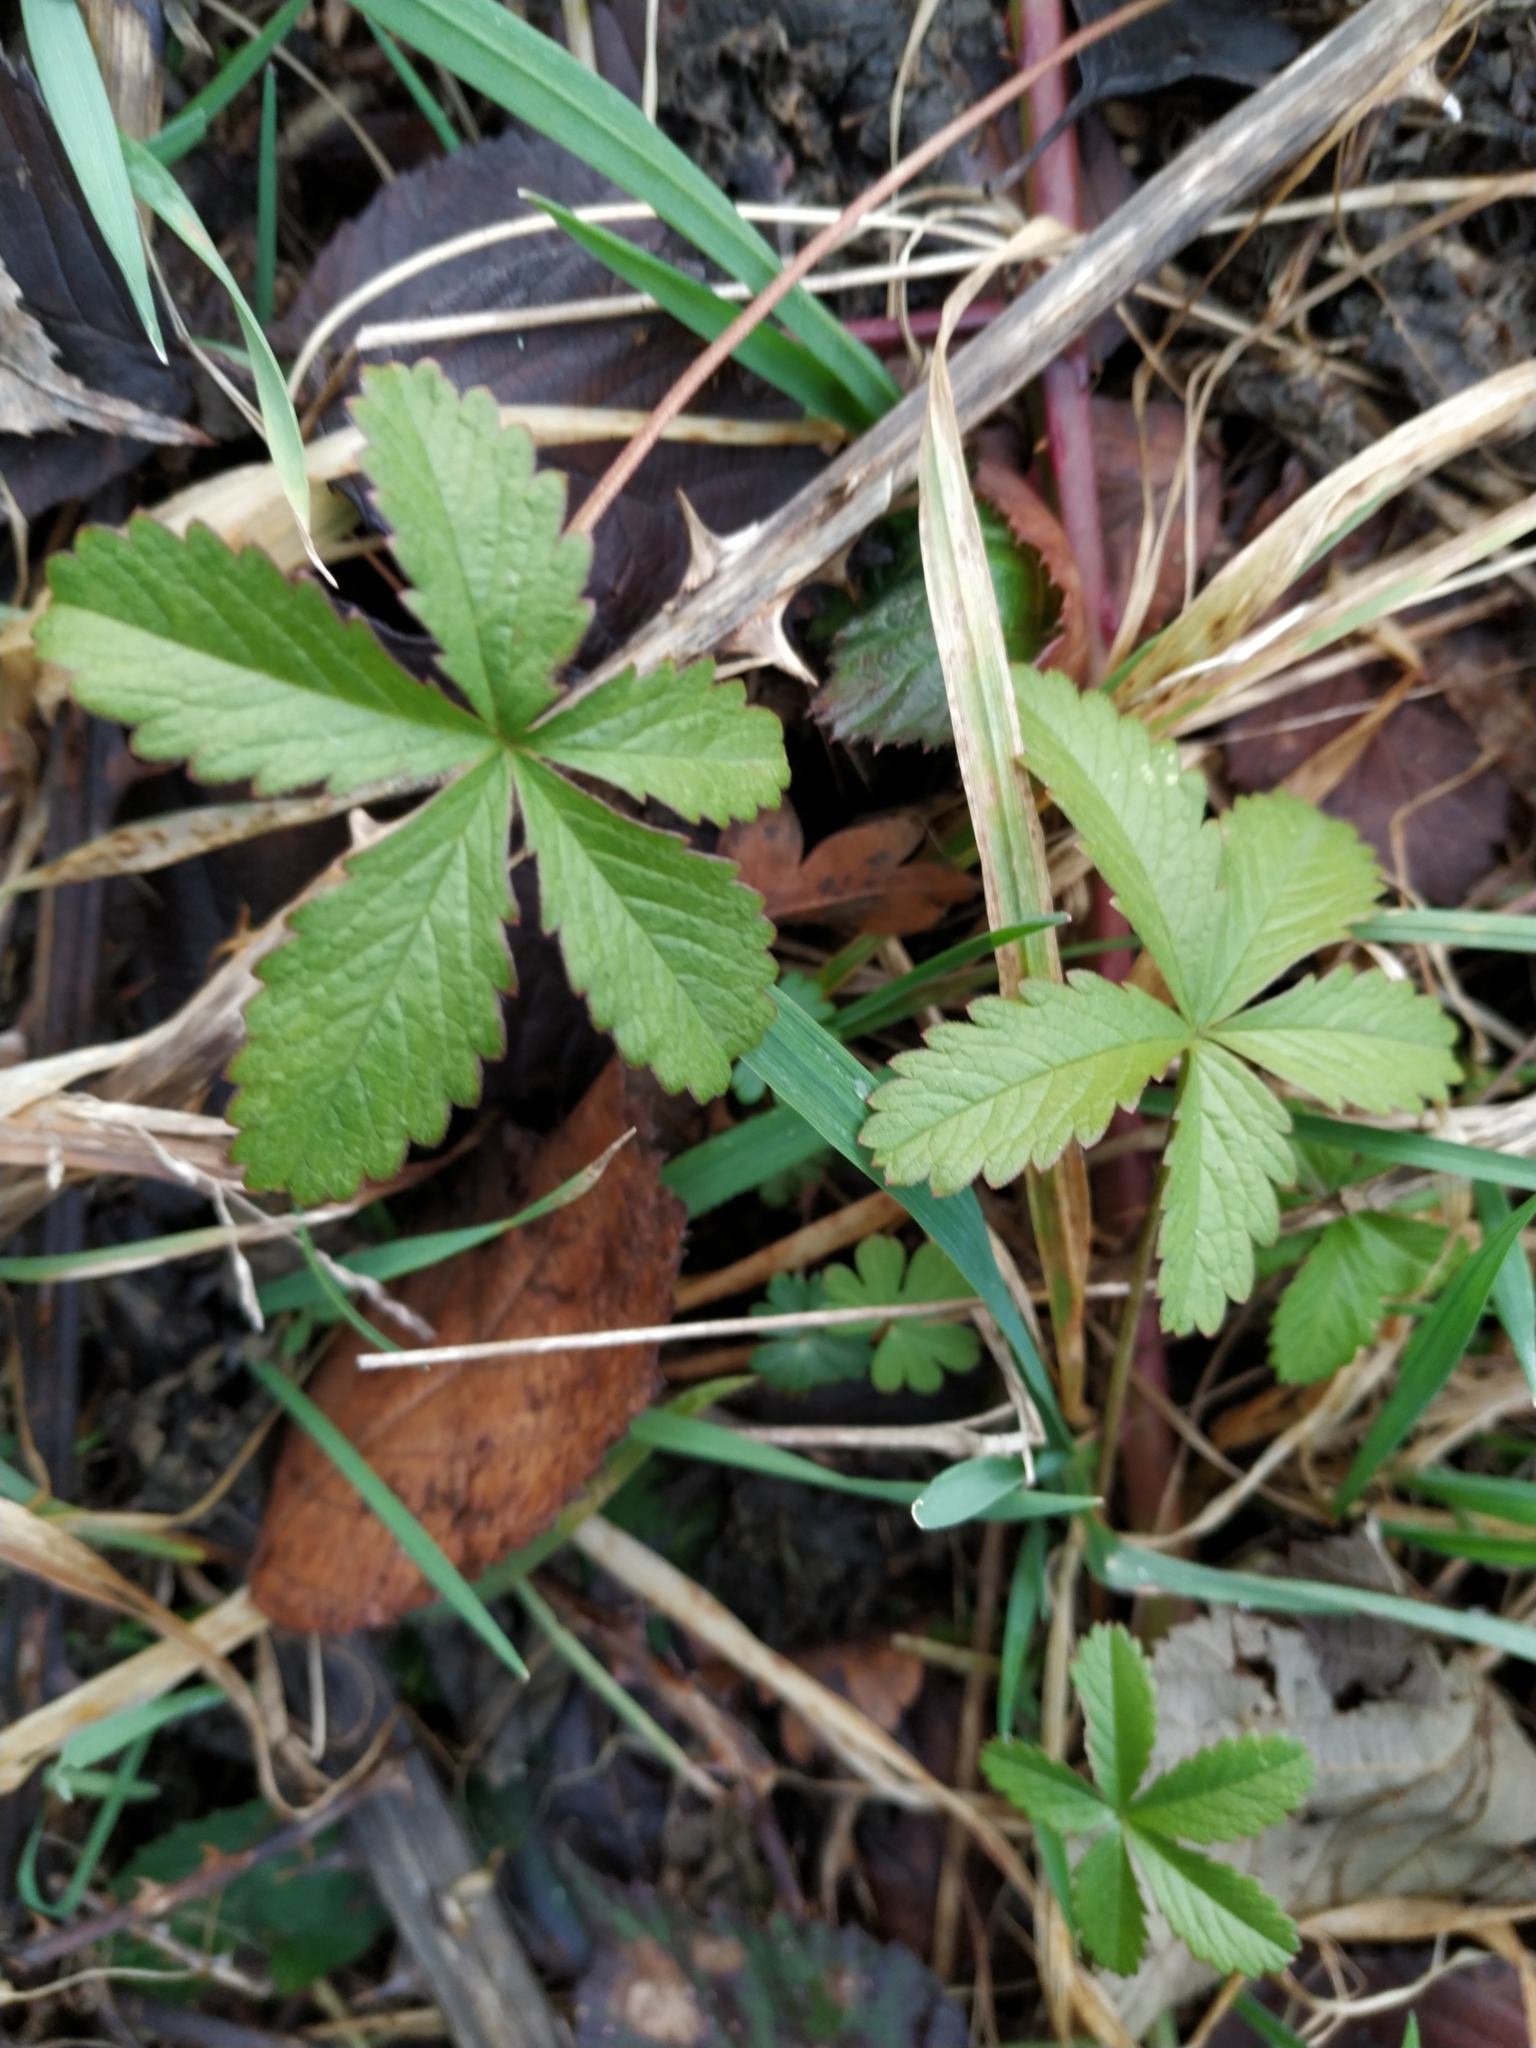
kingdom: Plantae
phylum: Tracheophyta
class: Magnoliopsida
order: Rosales
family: Rosaceae
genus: Potentilla
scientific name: Potentilla reptans
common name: Creeping cinquefoil
